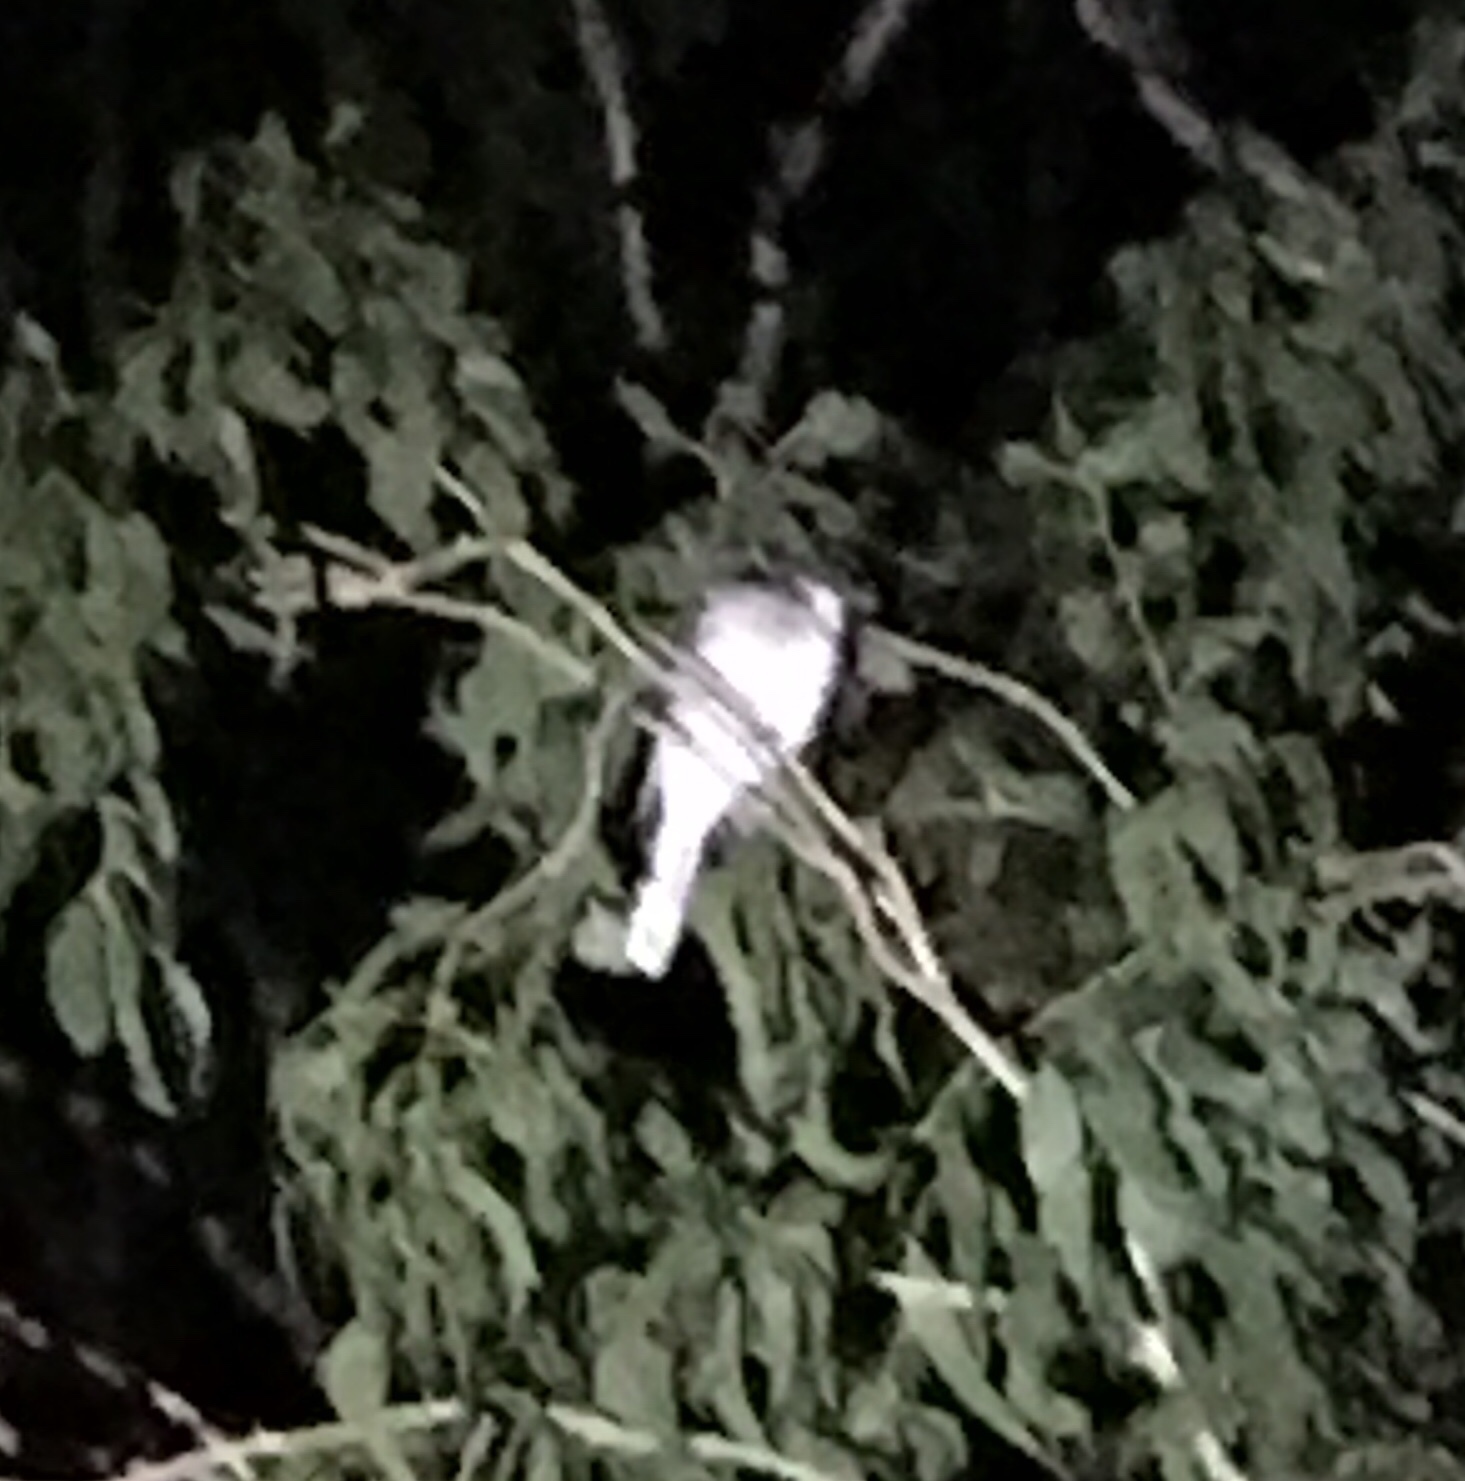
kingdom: Animalia
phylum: Chordata
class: Aves
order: Apodiformes
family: Aegothelidae
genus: Aegotheles
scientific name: Aegotheles cristatus
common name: Australian owlet-nightjar
